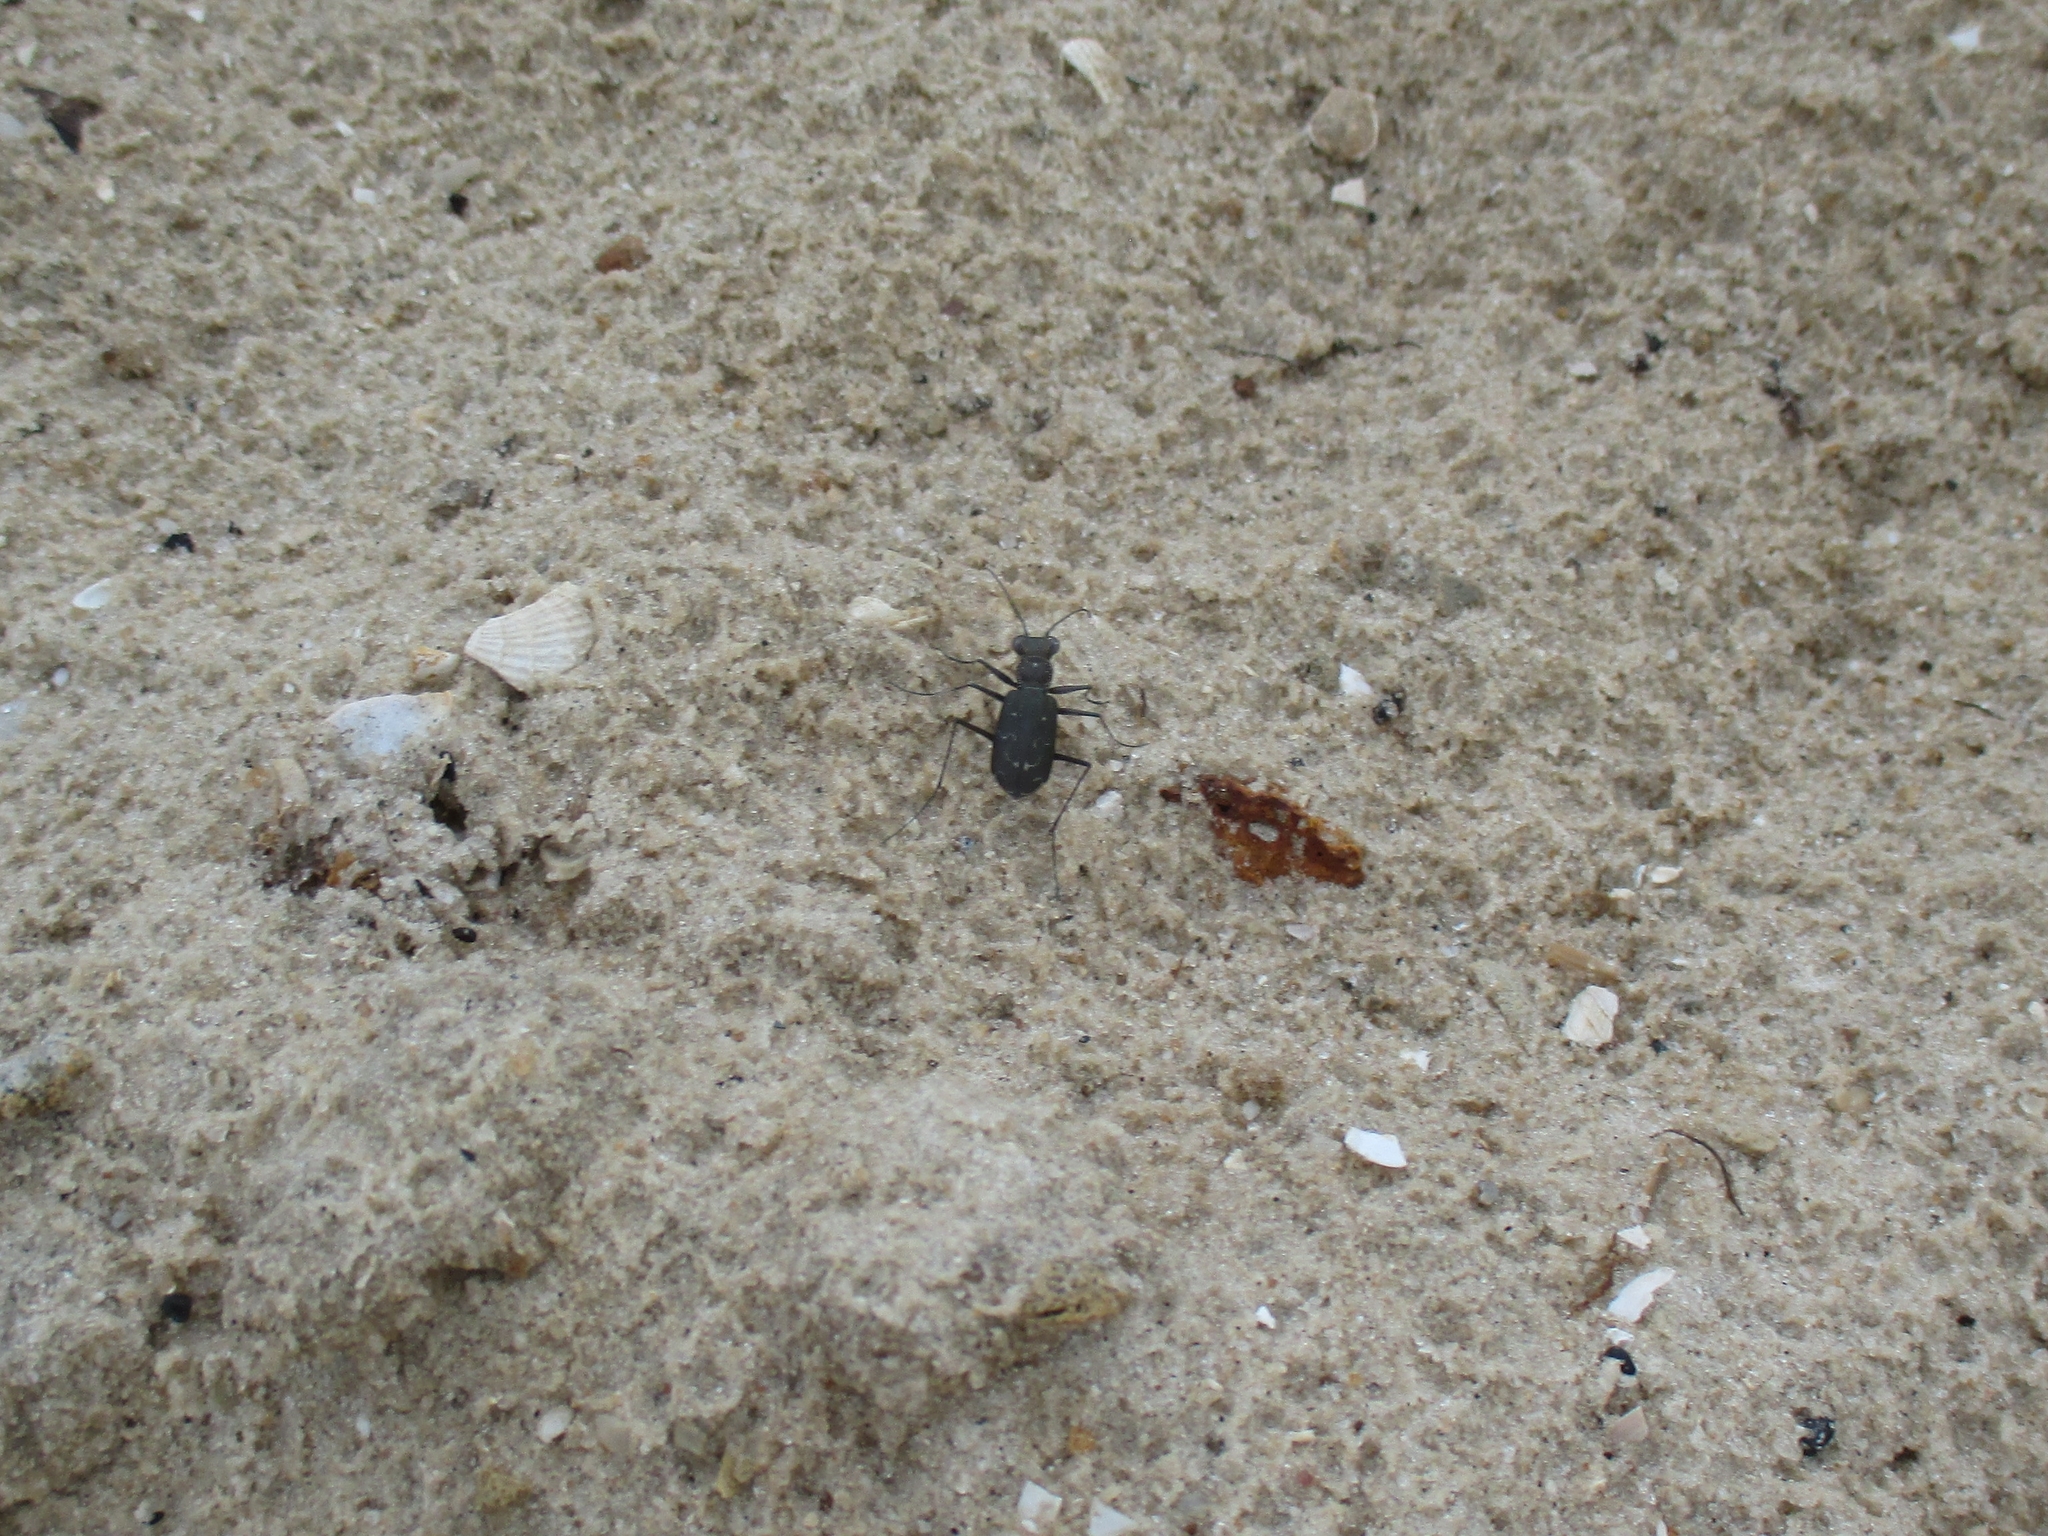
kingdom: Animalia
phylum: Arthropoda
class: Insecta
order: Coleoptera
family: Carabidae
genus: Cicindela
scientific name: Cicindela trifasciata
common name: Mudflat tiger beetle
